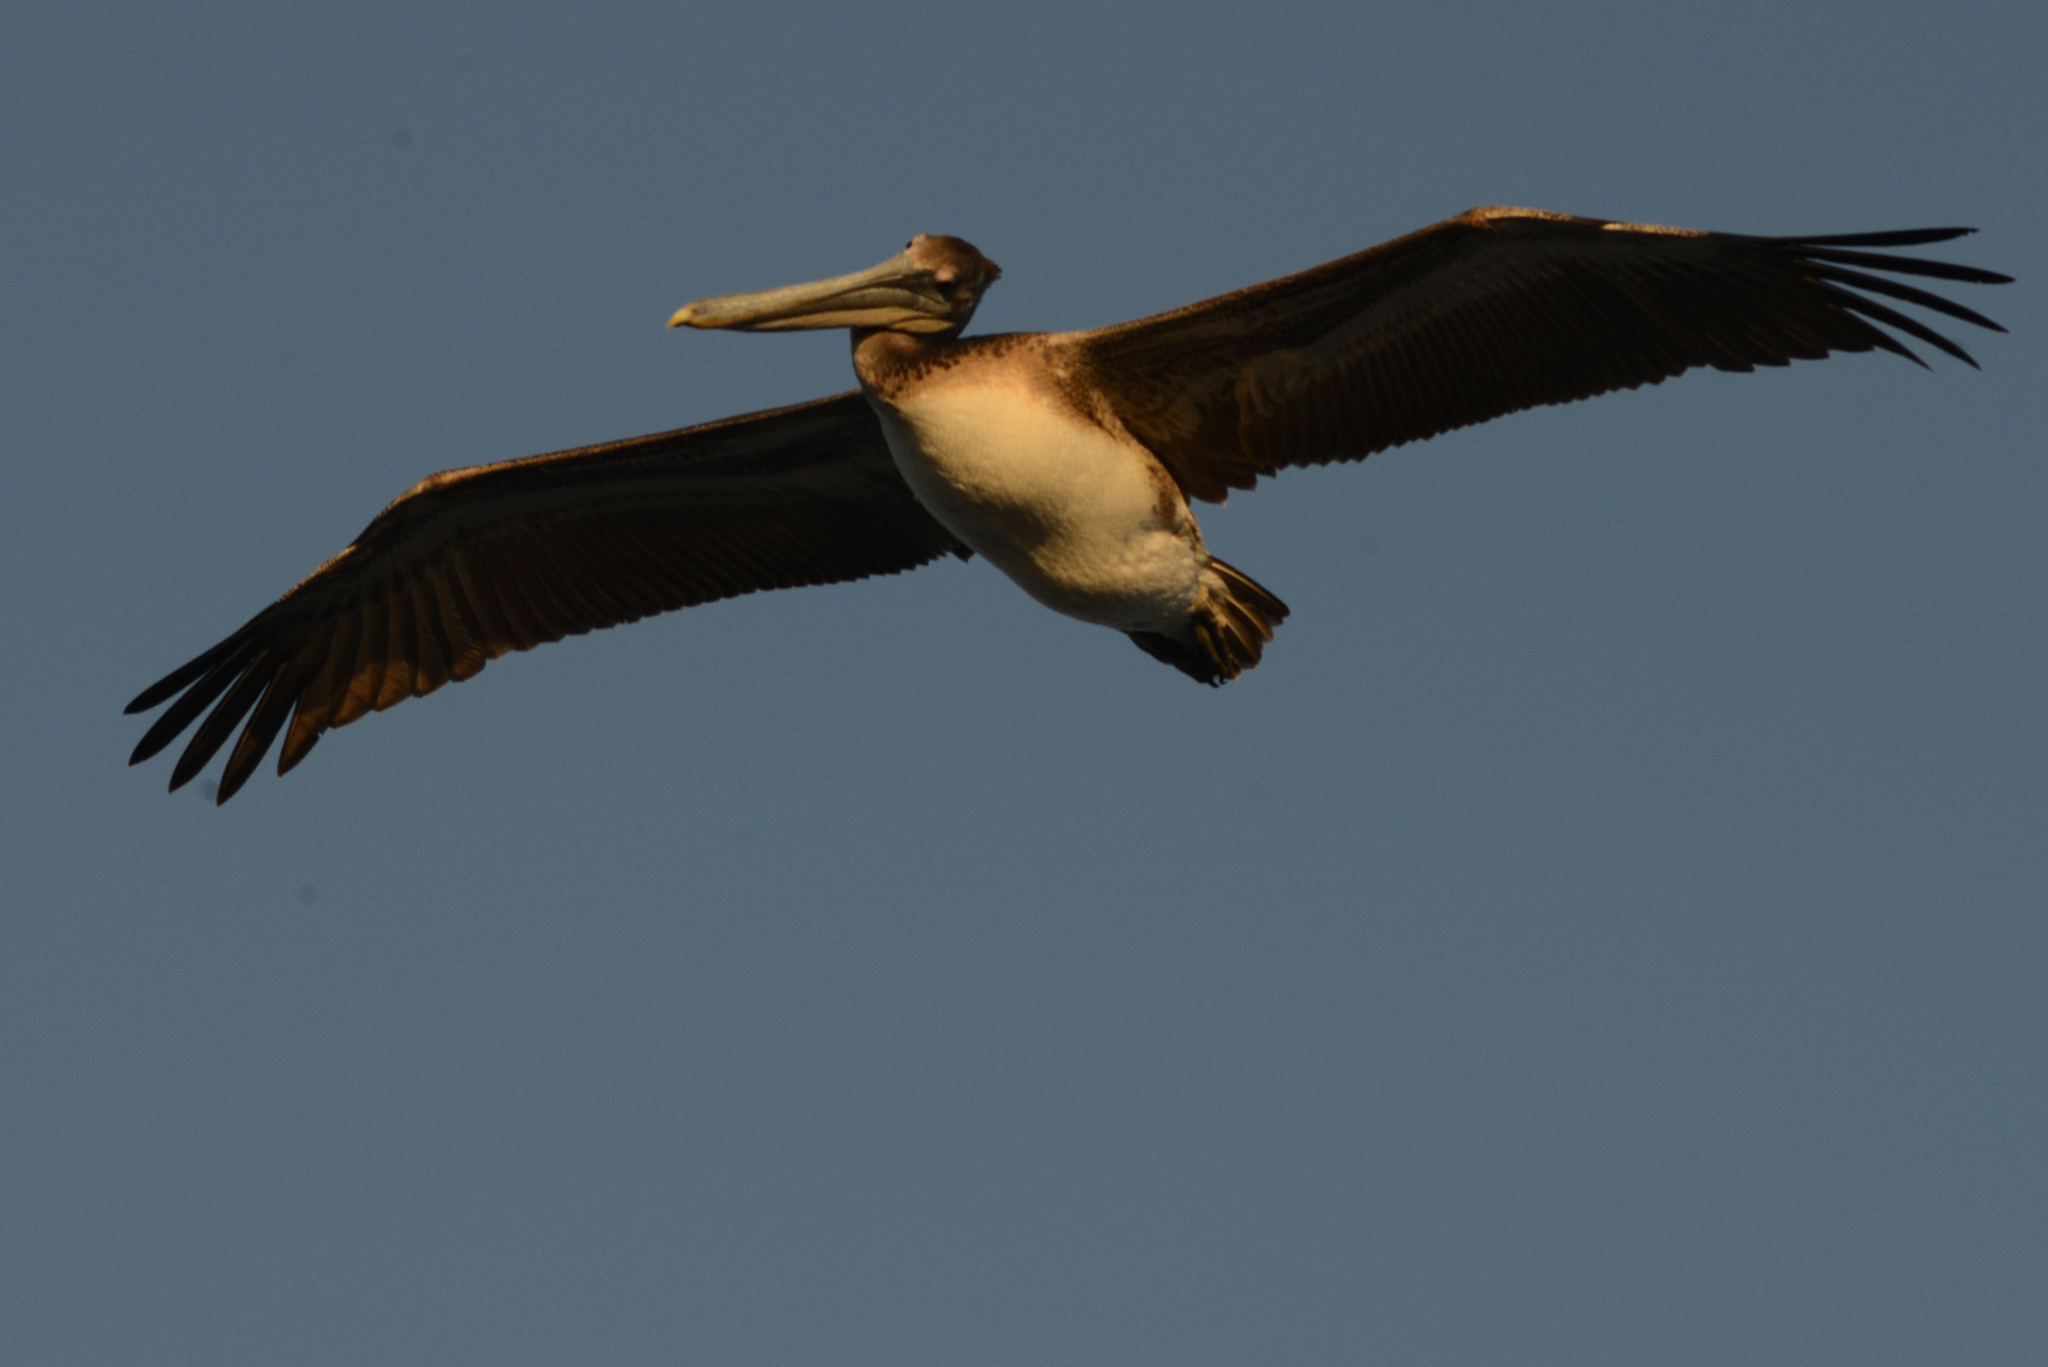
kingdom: Animalia
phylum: Chordata
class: Aves
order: Pelecaniformes
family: Pelecanidae
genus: Pelecanus
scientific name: Pelecanus occidentalis
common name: Brown pelican
